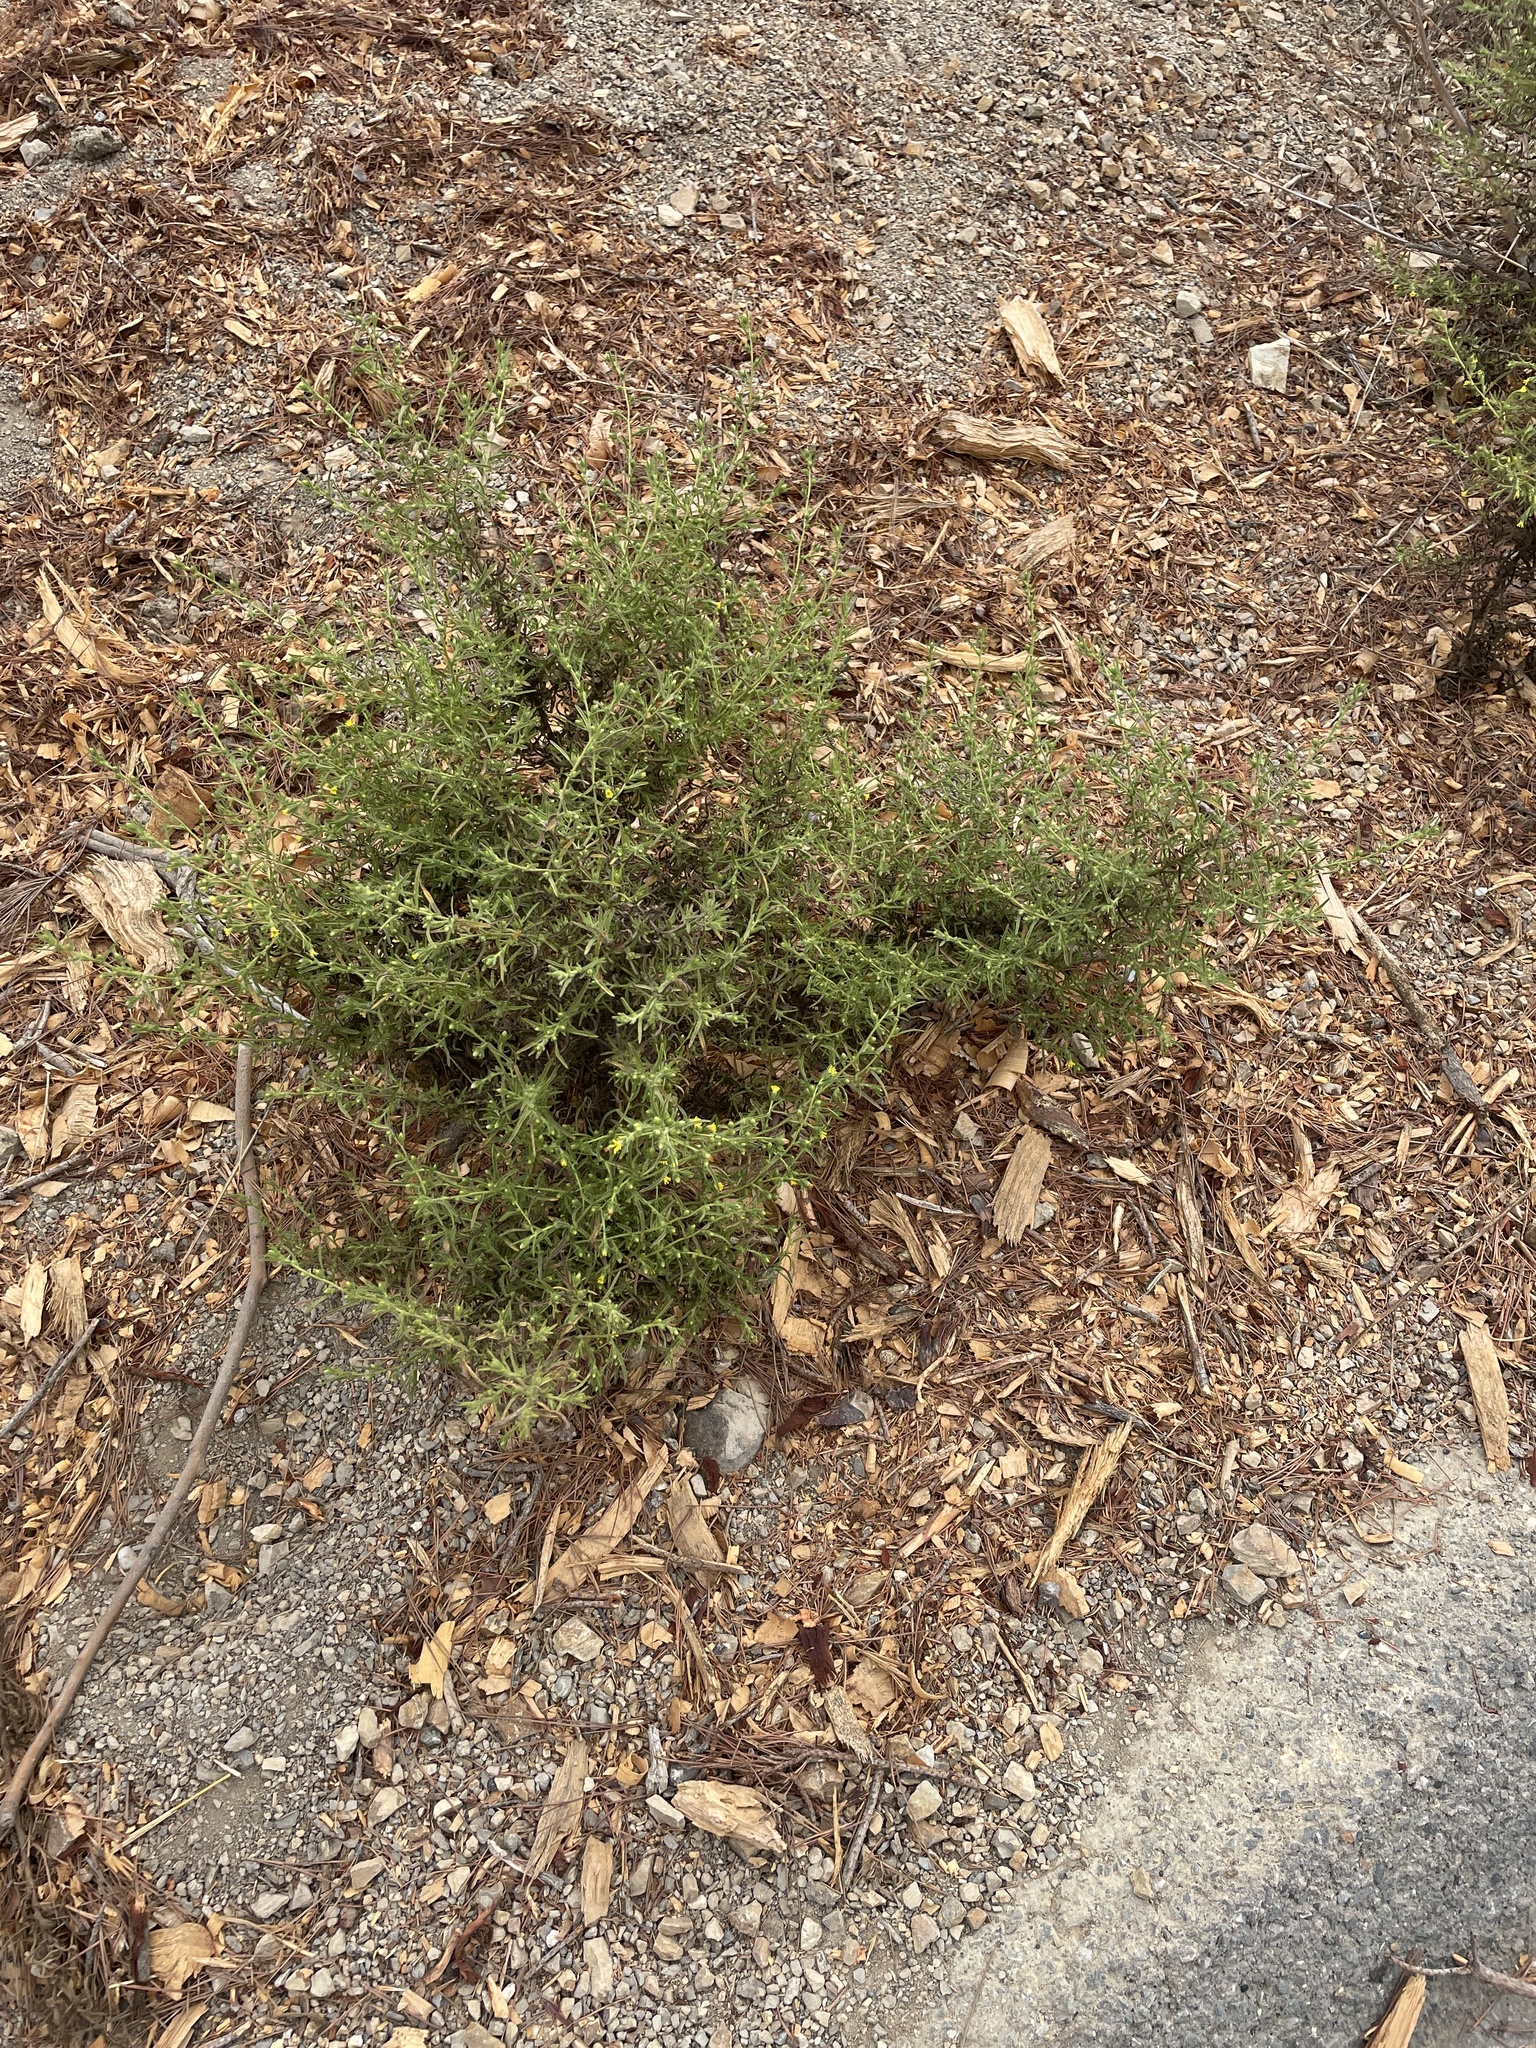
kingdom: Plantae
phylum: Tracheophyta
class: Magnoliopsida
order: Asterales
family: Asteraceae
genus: Dittrichia
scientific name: Dittrichia graveolens
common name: Stinking fleabane
